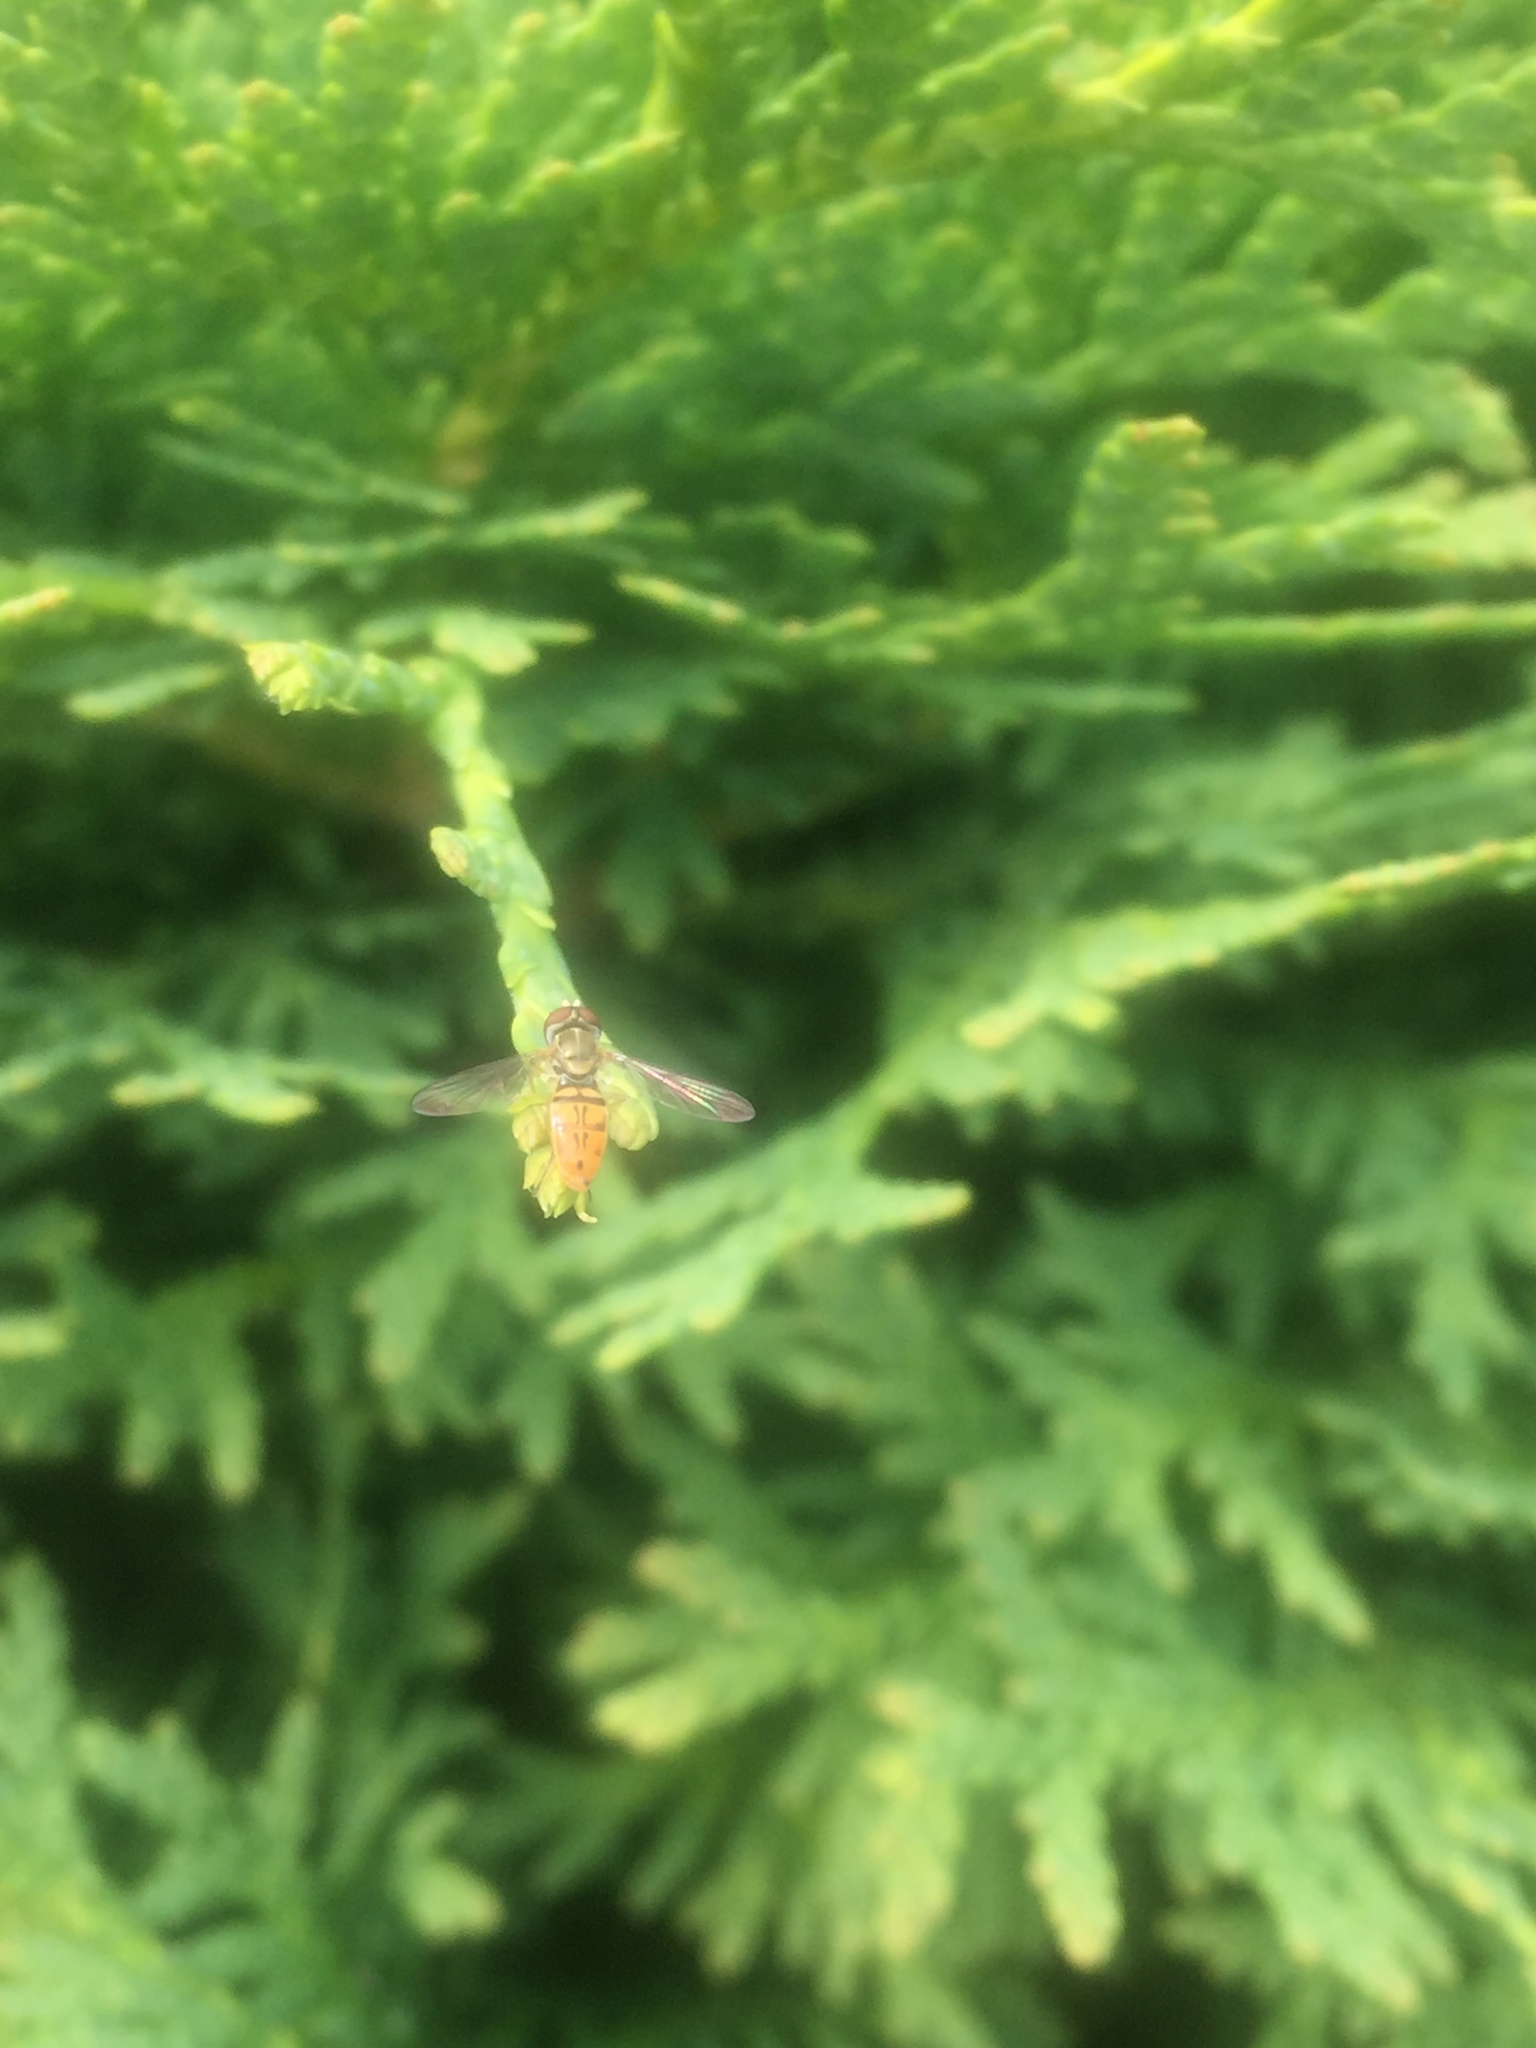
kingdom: Animalia
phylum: Arthropoda
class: Insecta
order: Diptera
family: Syrphidae
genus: Toxomerus
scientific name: Toxomerus marginatus
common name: Syrphid fly
